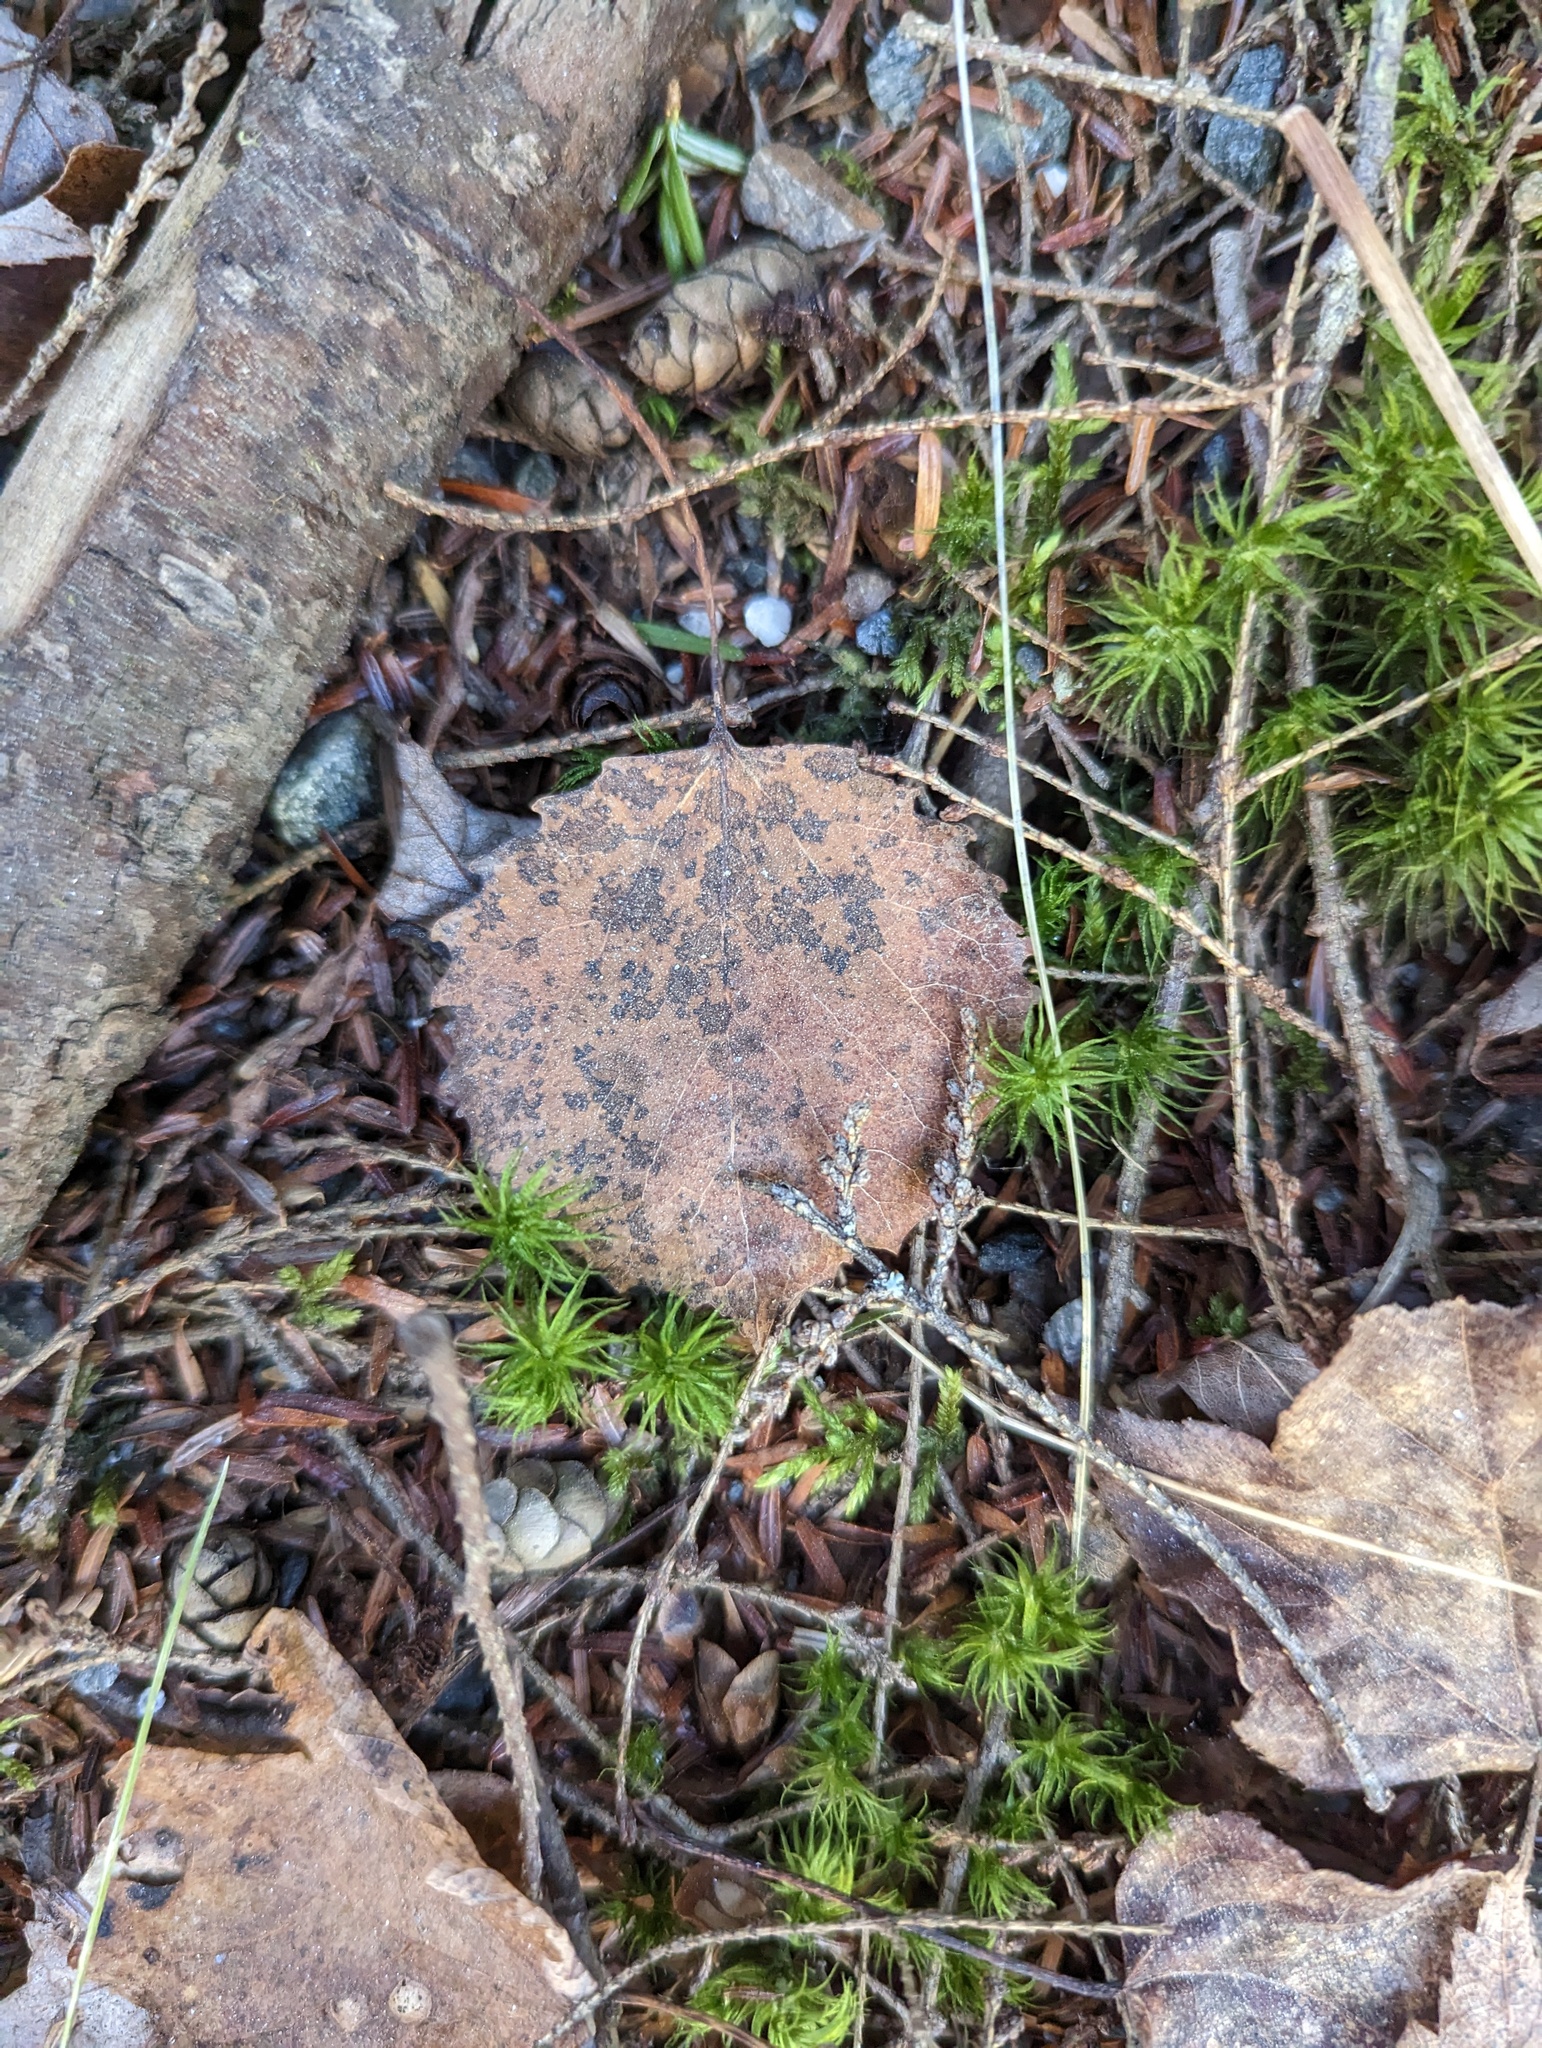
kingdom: Plantae
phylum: Tracheophyta
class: Magnoliopsida
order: Malpighiales
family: Salicaceae
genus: Populus
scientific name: Populus grandidentata
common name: Bigtooth aspen
